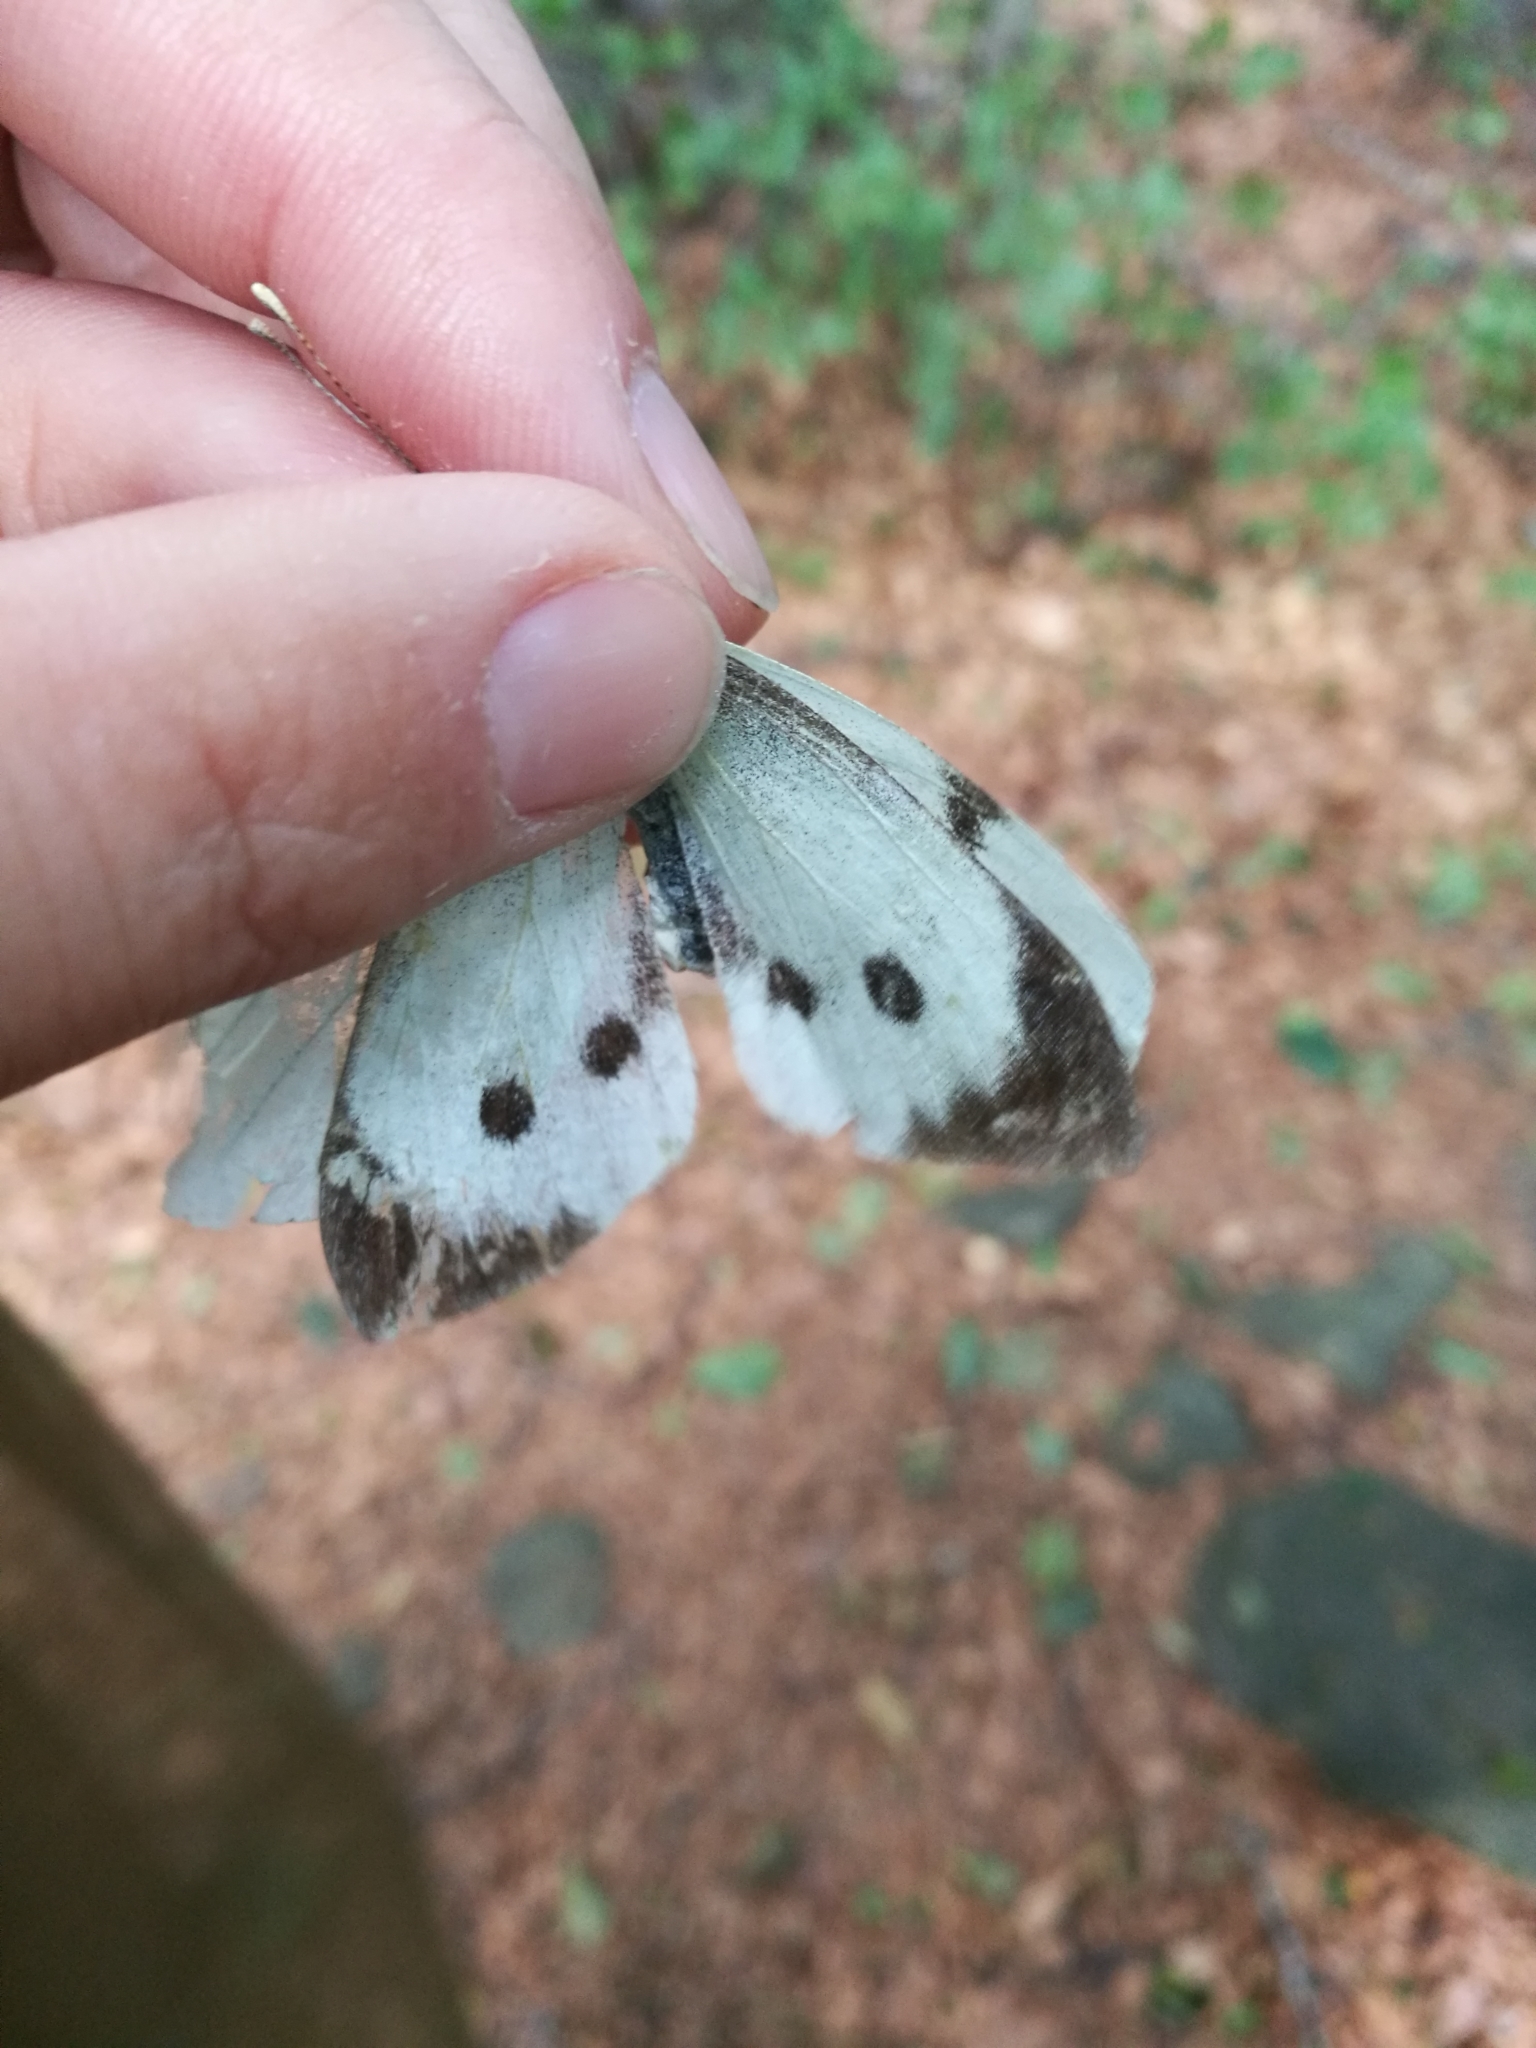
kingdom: Animalia
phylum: Arthropoda
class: Insecta
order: Lepidoptera
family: Pieridae
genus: Pieris
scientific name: Pieris brassicae
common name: Large white
